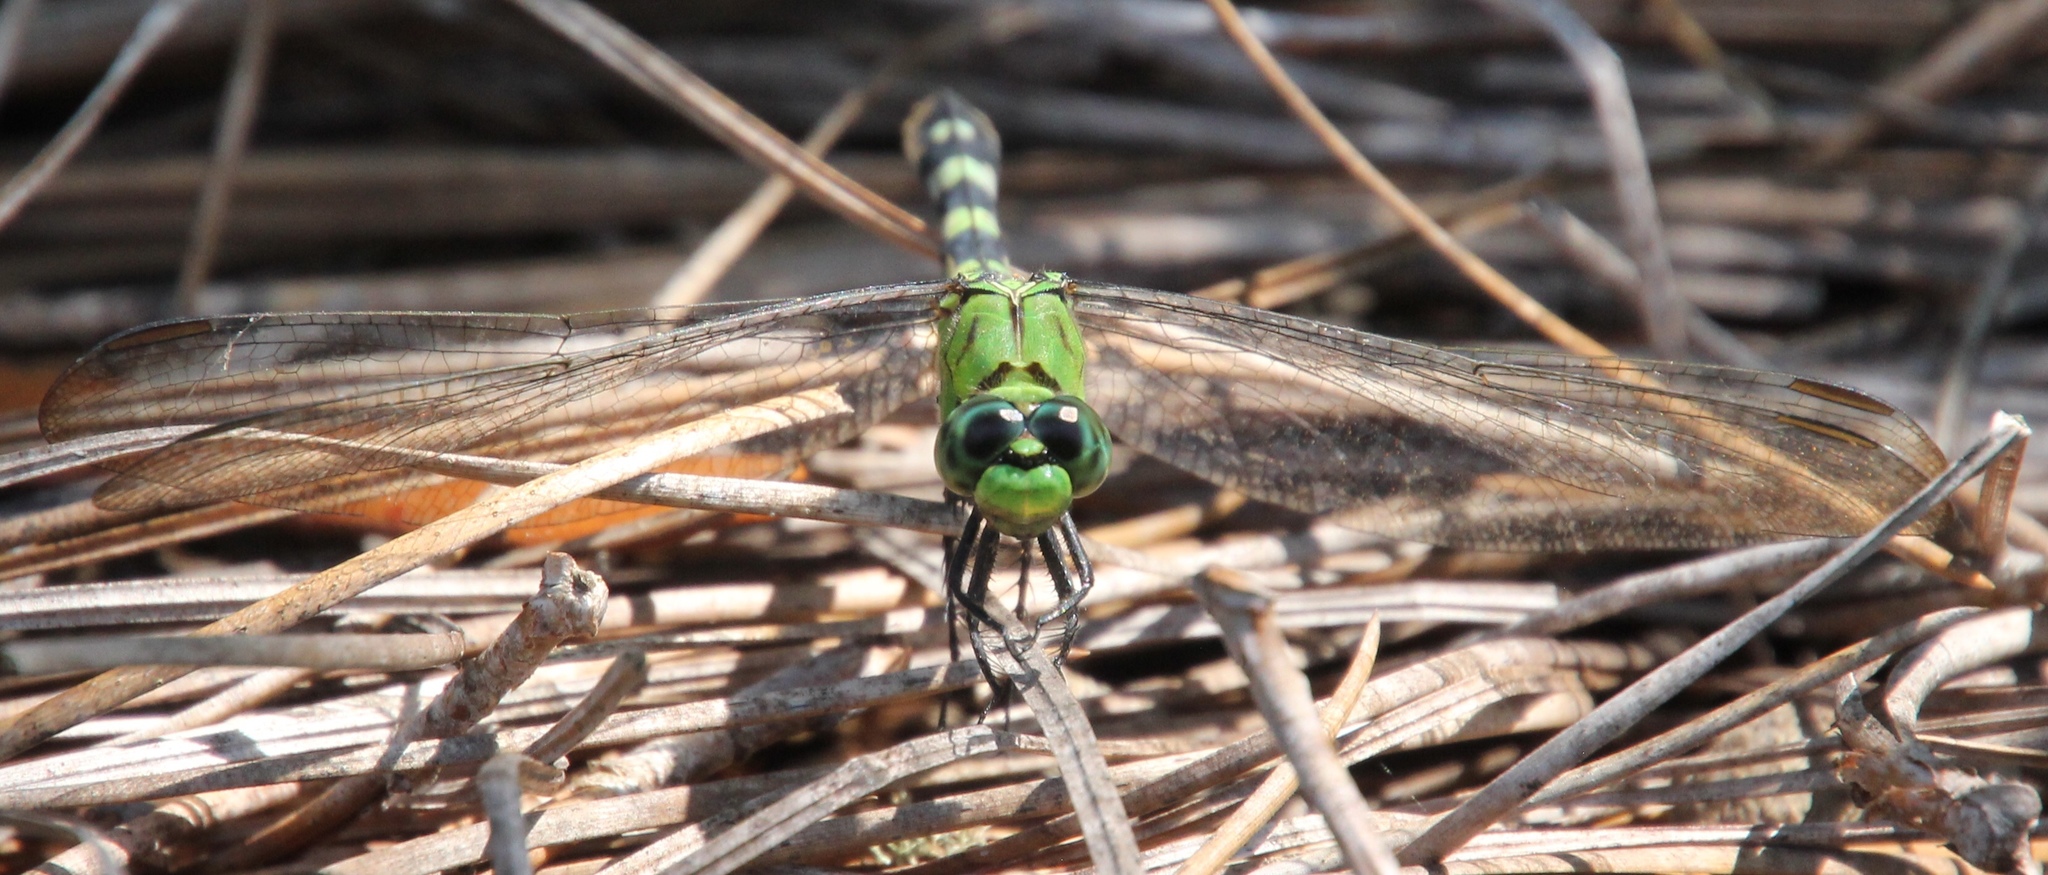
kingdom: Animalia
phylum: Arthropoda
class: Insecta
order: Odonata
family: Libellulidae
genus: Erythemis
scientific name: Erythemis simplicicollis
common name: Eastern pondhawk
